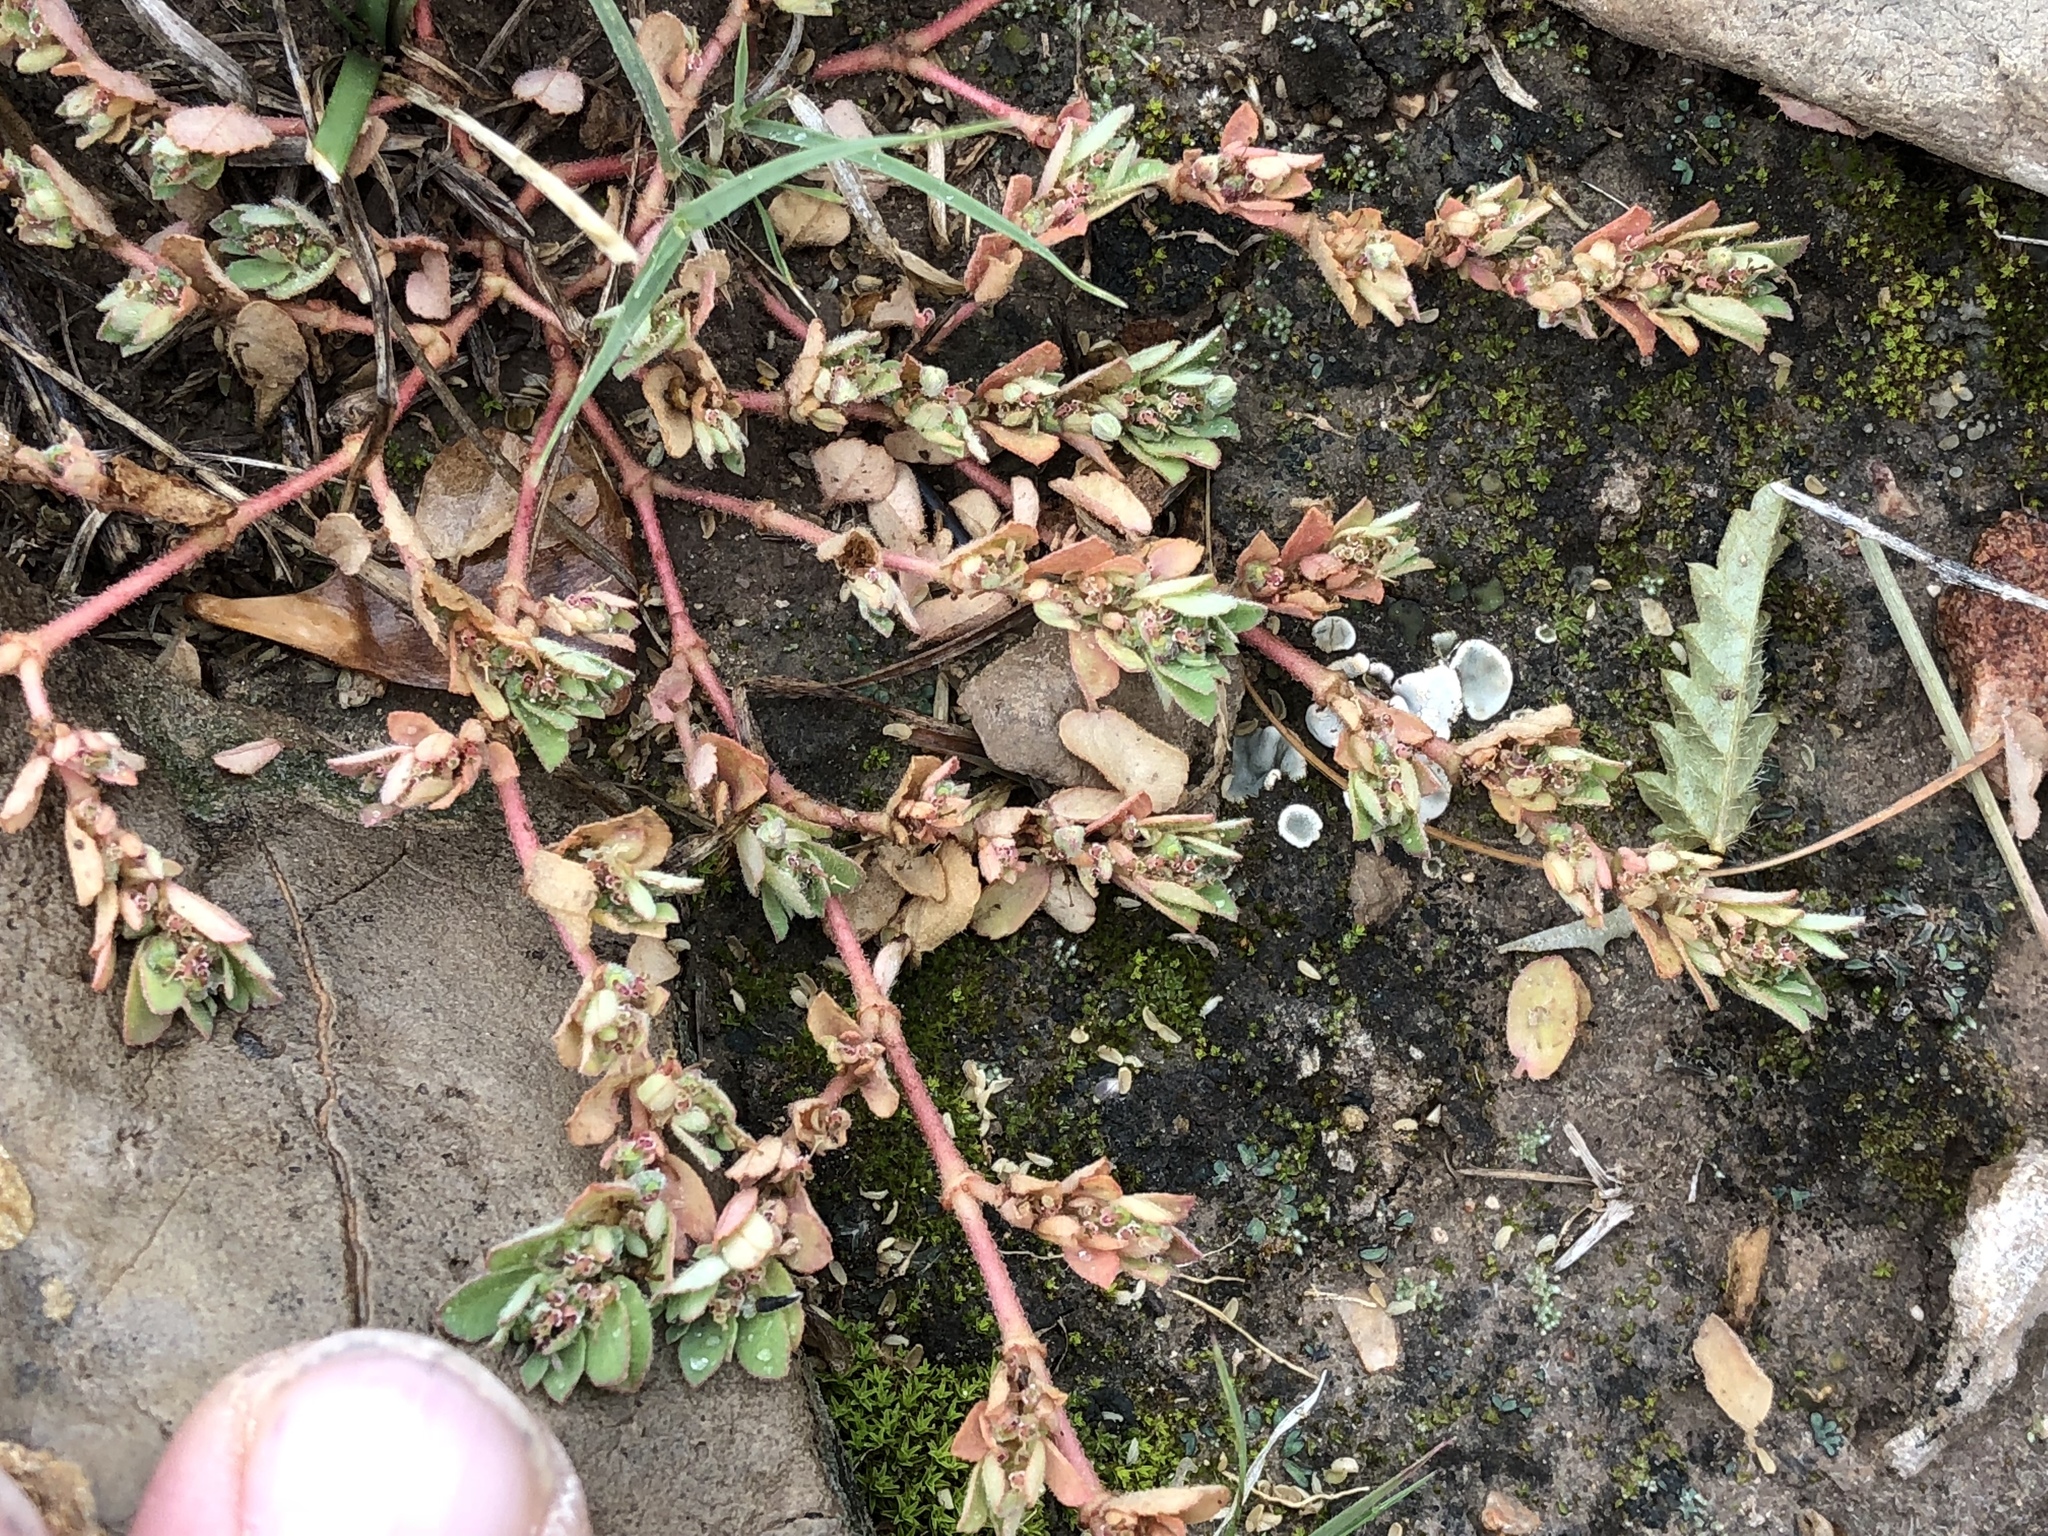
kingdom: Plantae
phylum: Tracheophyta
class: Magnoliopsida
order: Malpighiales
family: Euphorbiaceae
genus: Euphorbia
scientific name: Euphorbia stictospora
